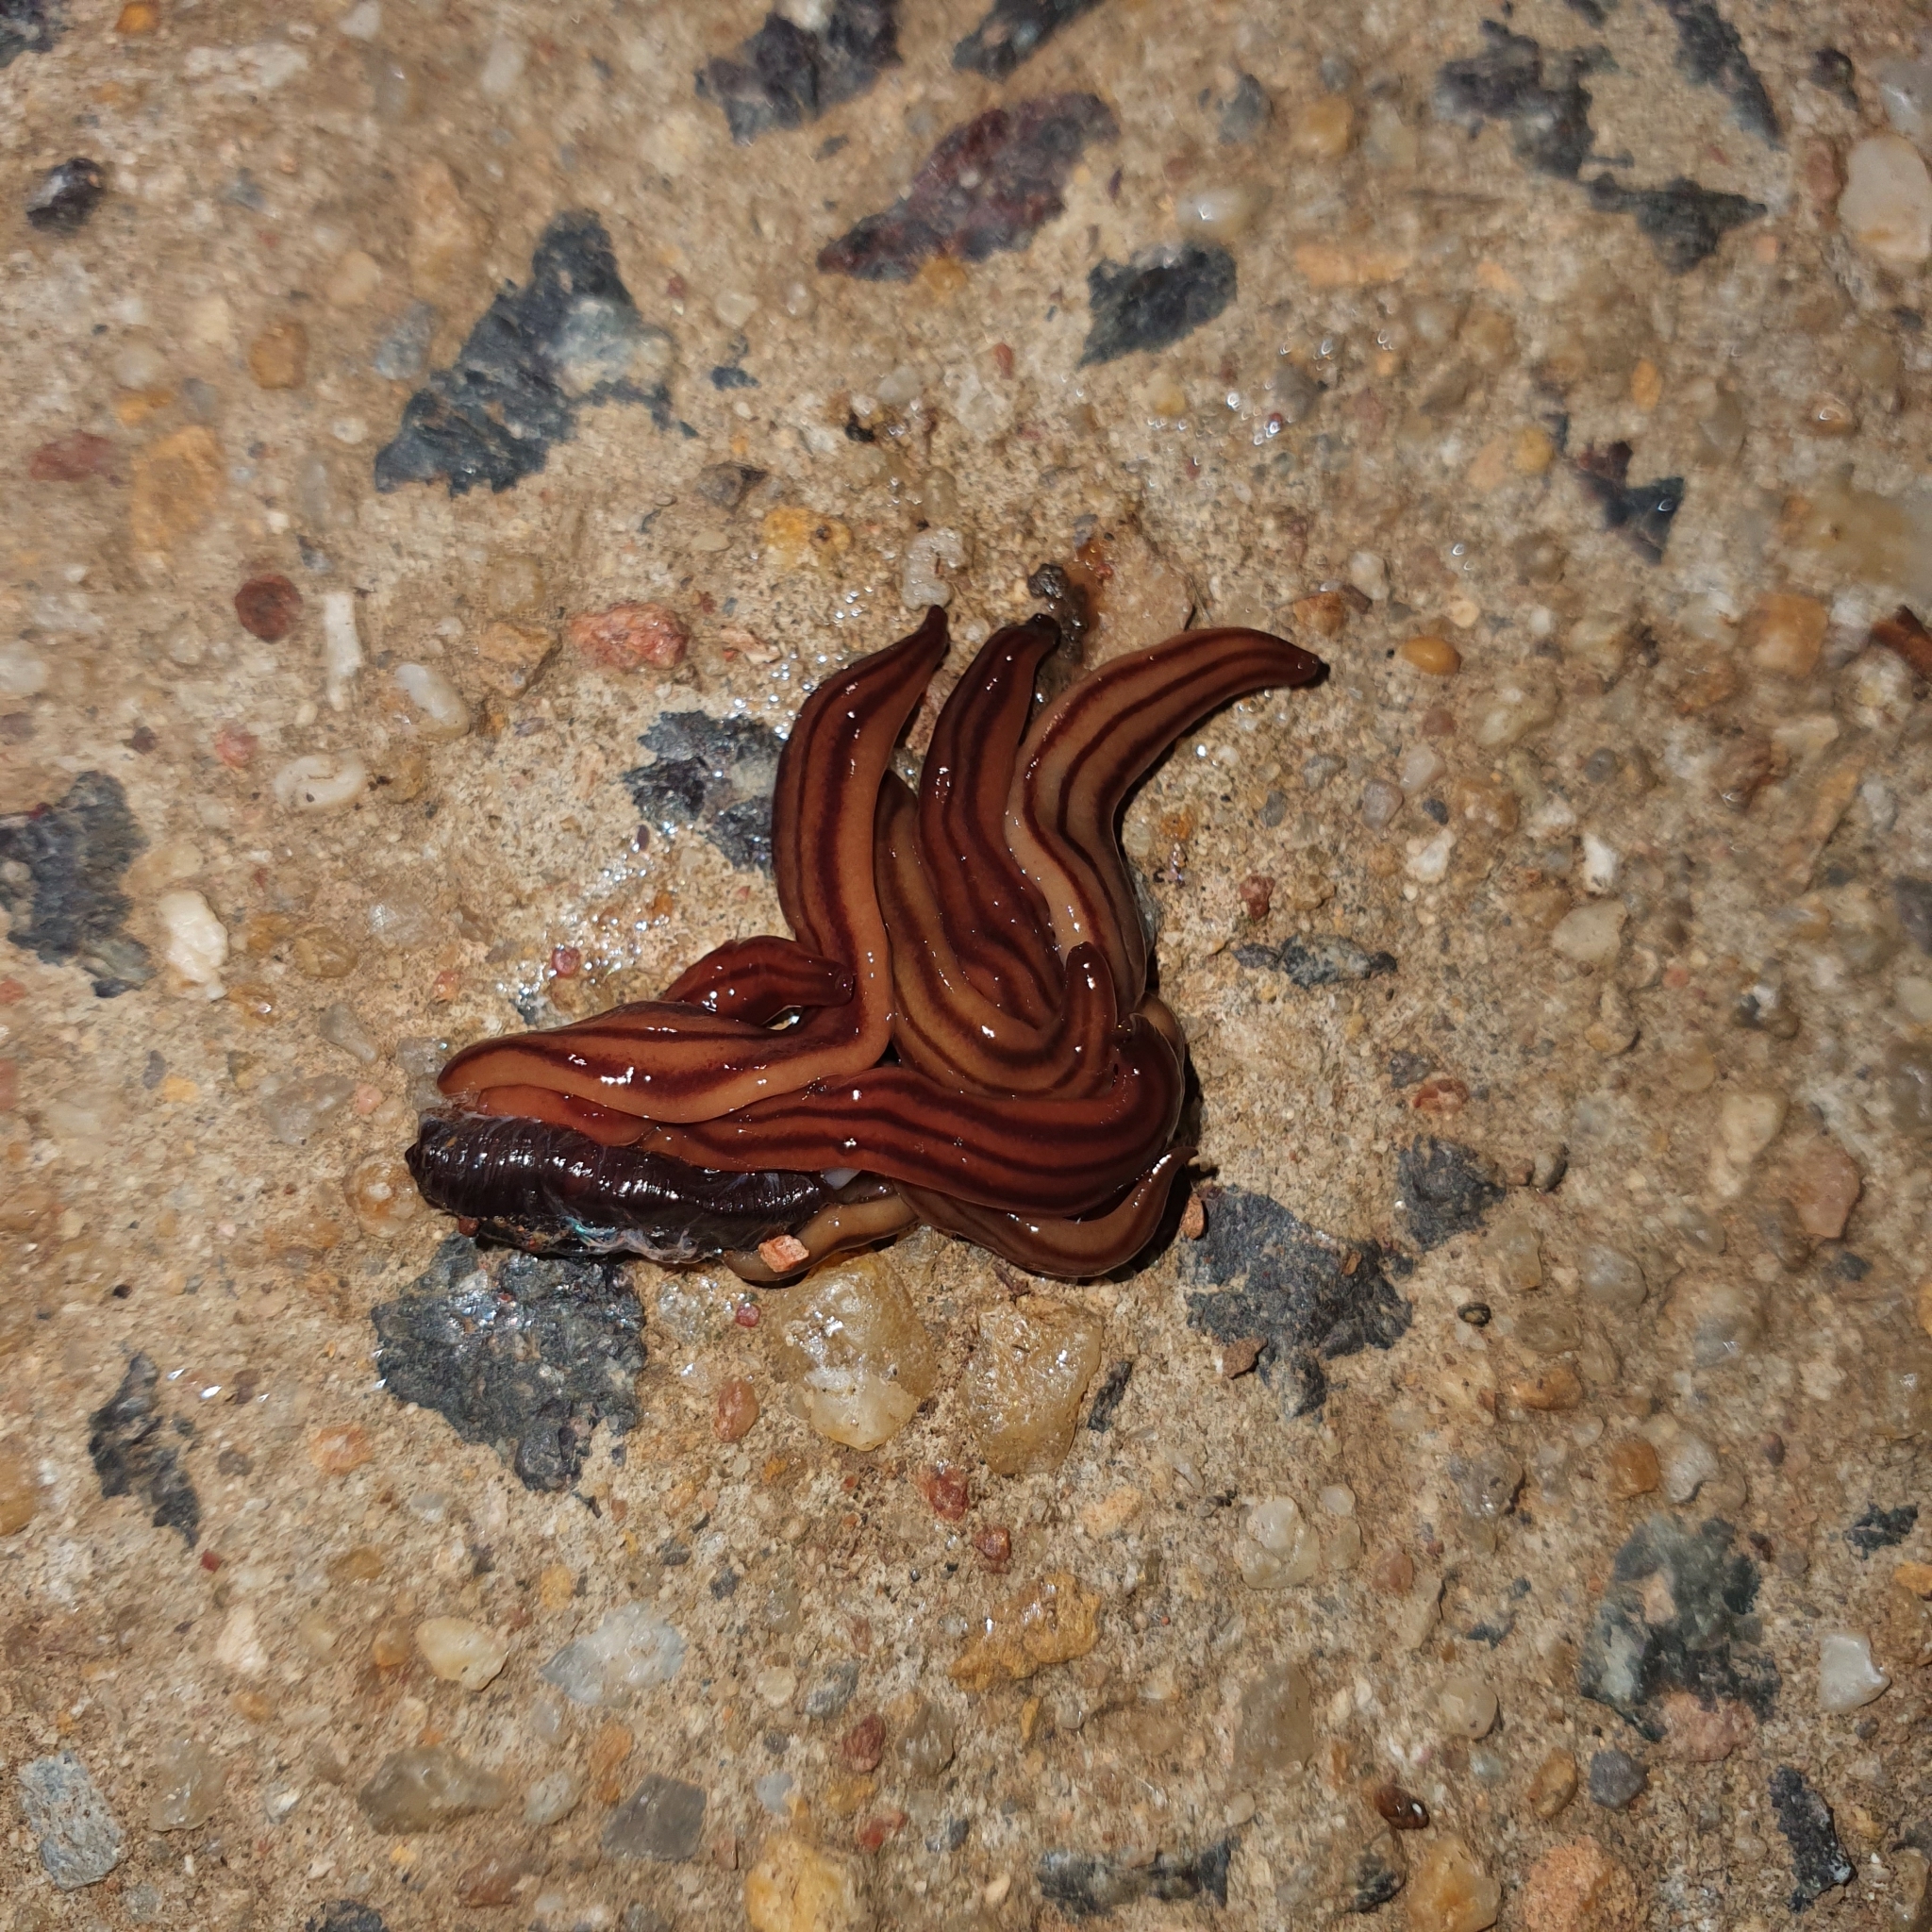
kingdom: Animalia
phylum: Platyhelminthes
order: Tricladida
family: Geoplanidae
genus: Anzoplana
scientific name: Anzoplana trilineata
